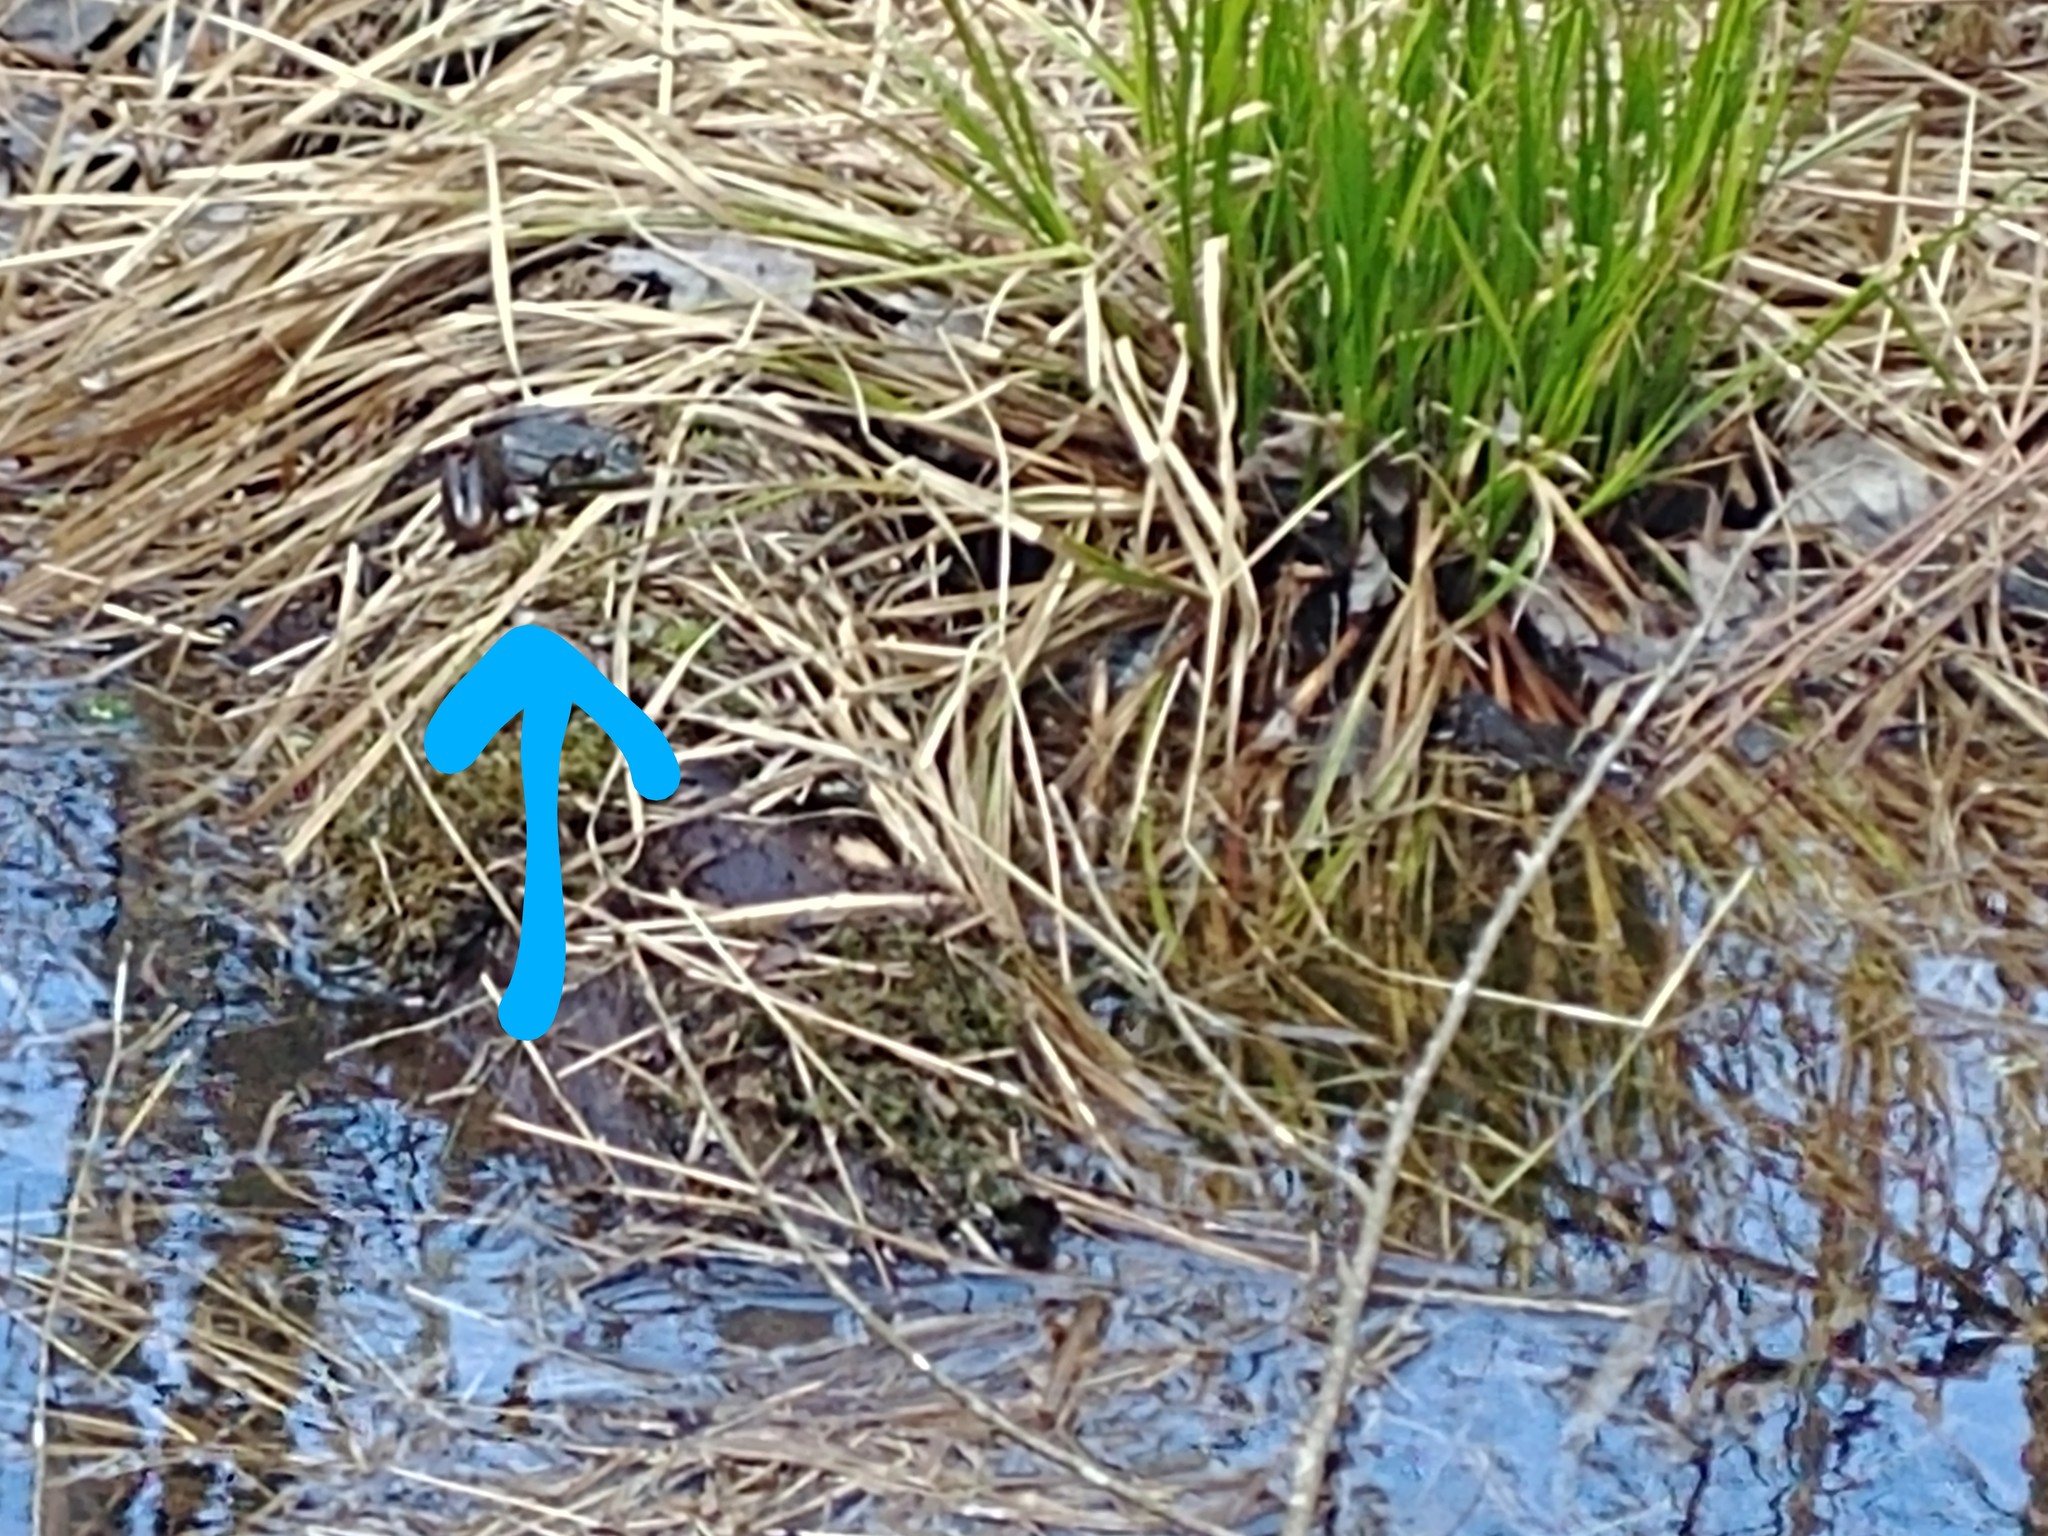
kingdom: Animalia
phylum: Chordata
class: Amphibia
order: Anura
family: Ranidae
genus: Lithobates
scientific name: Lithobates clamitans
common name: Green frog
